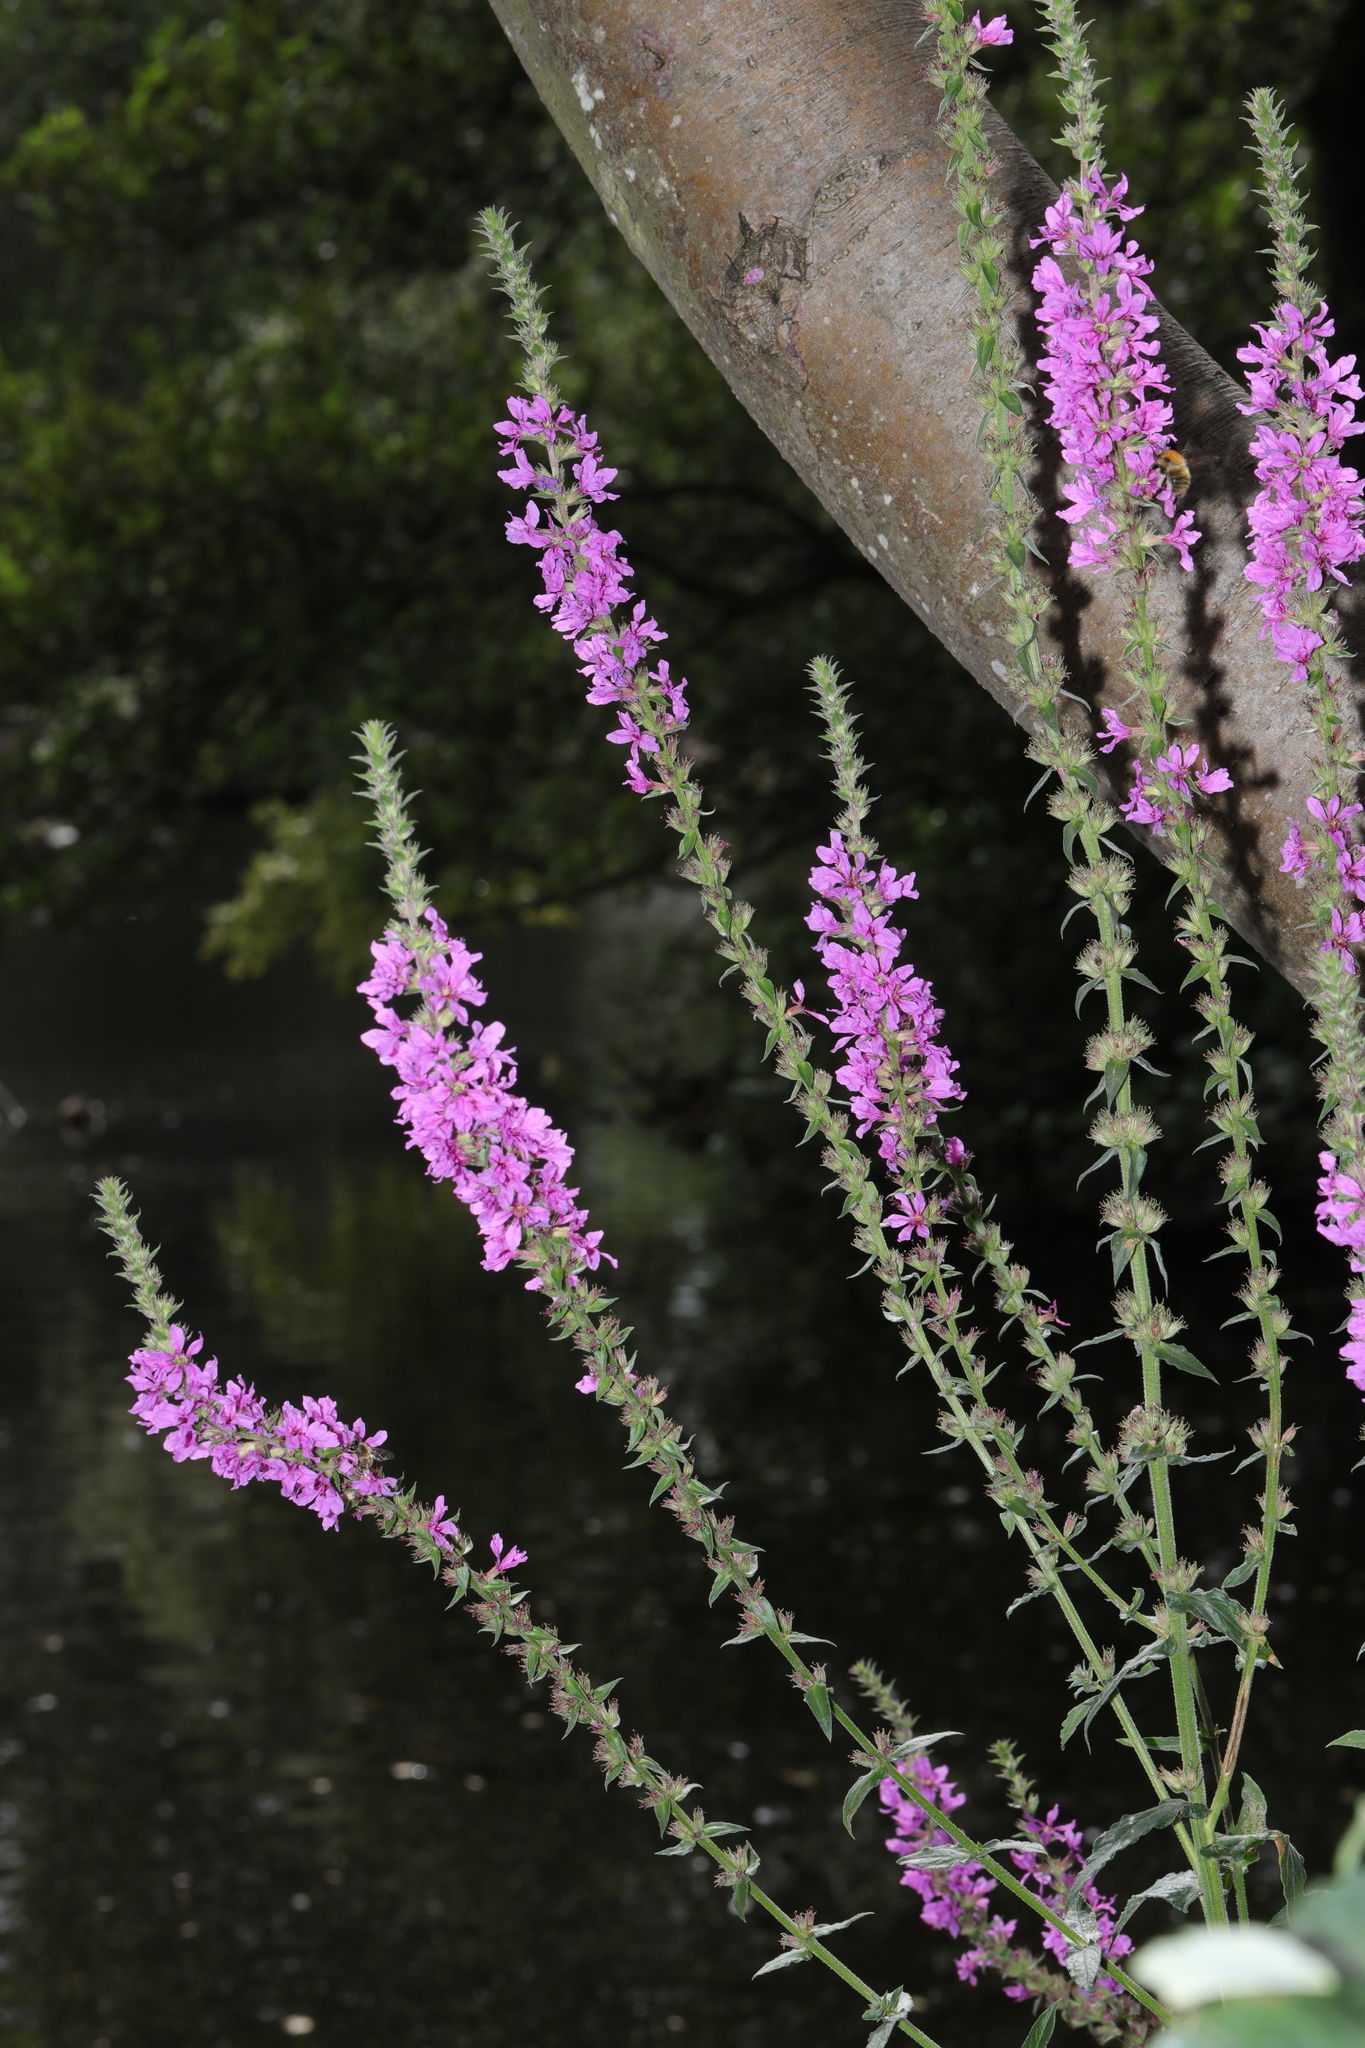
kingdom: Plantae
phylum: Tracheophyta
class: Magnoliopsida
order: Myrtales
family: Lythraceae
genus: Lythrum
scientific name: Lythrum salicaria
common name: Purple loosestrife
